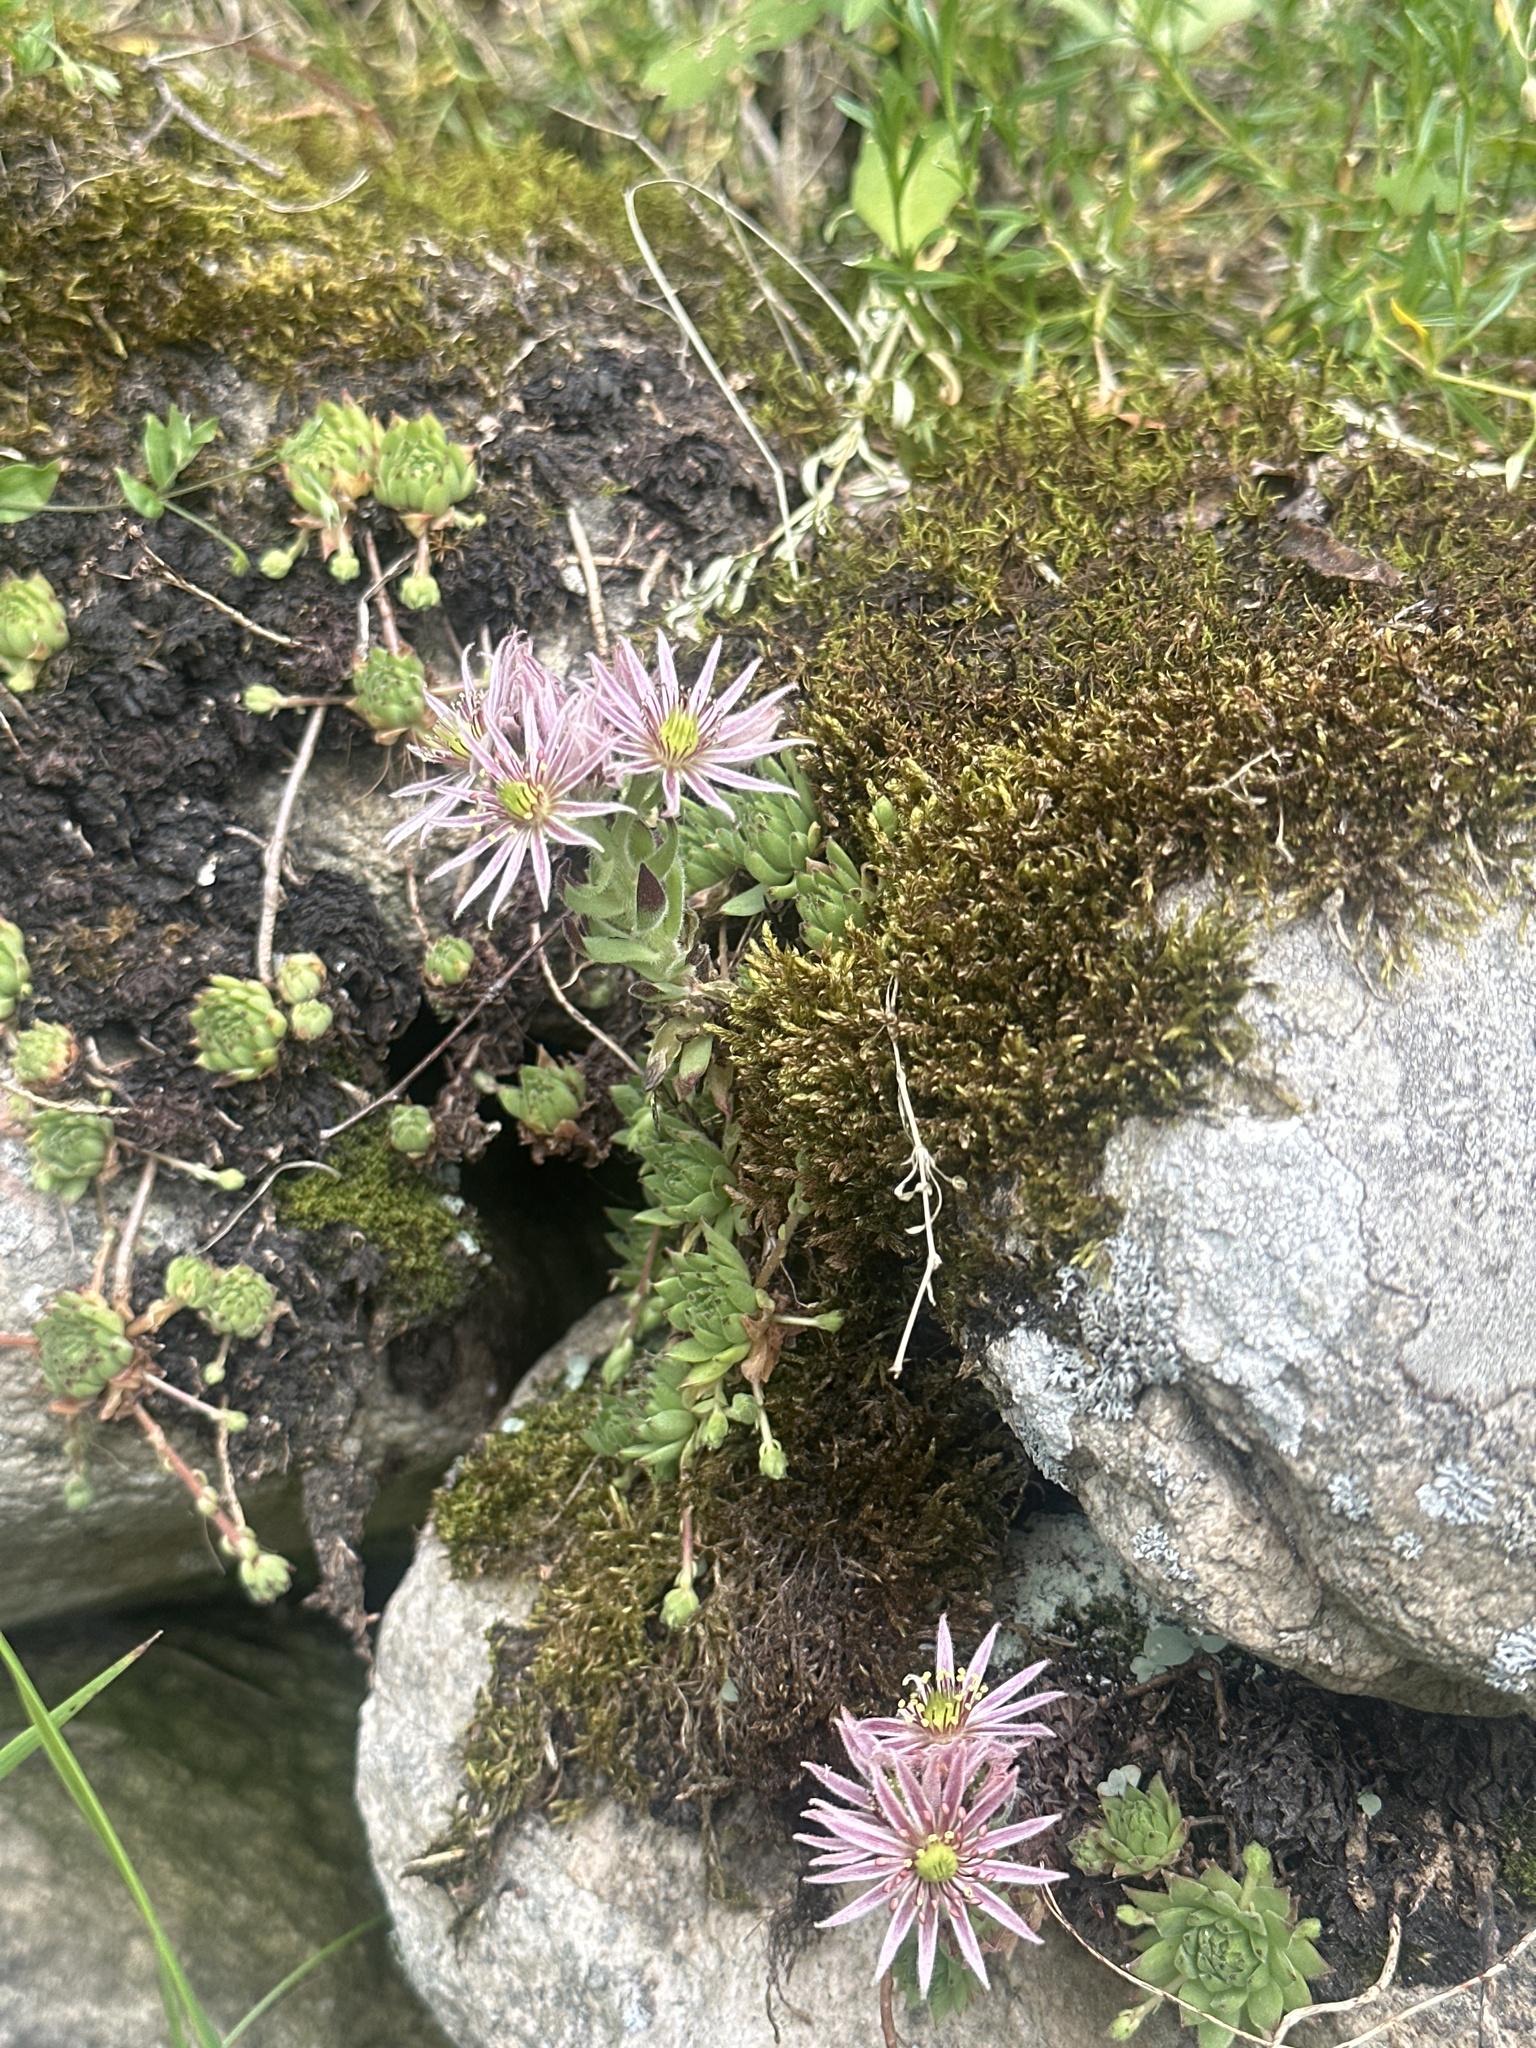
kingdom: Plantae
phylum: Tracheophyta
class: Magnoliopsida
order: Saxifragales
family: Crassulaceae
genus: Sempervivum
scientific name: Sempervivum montanum
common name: Mountain house-leek
